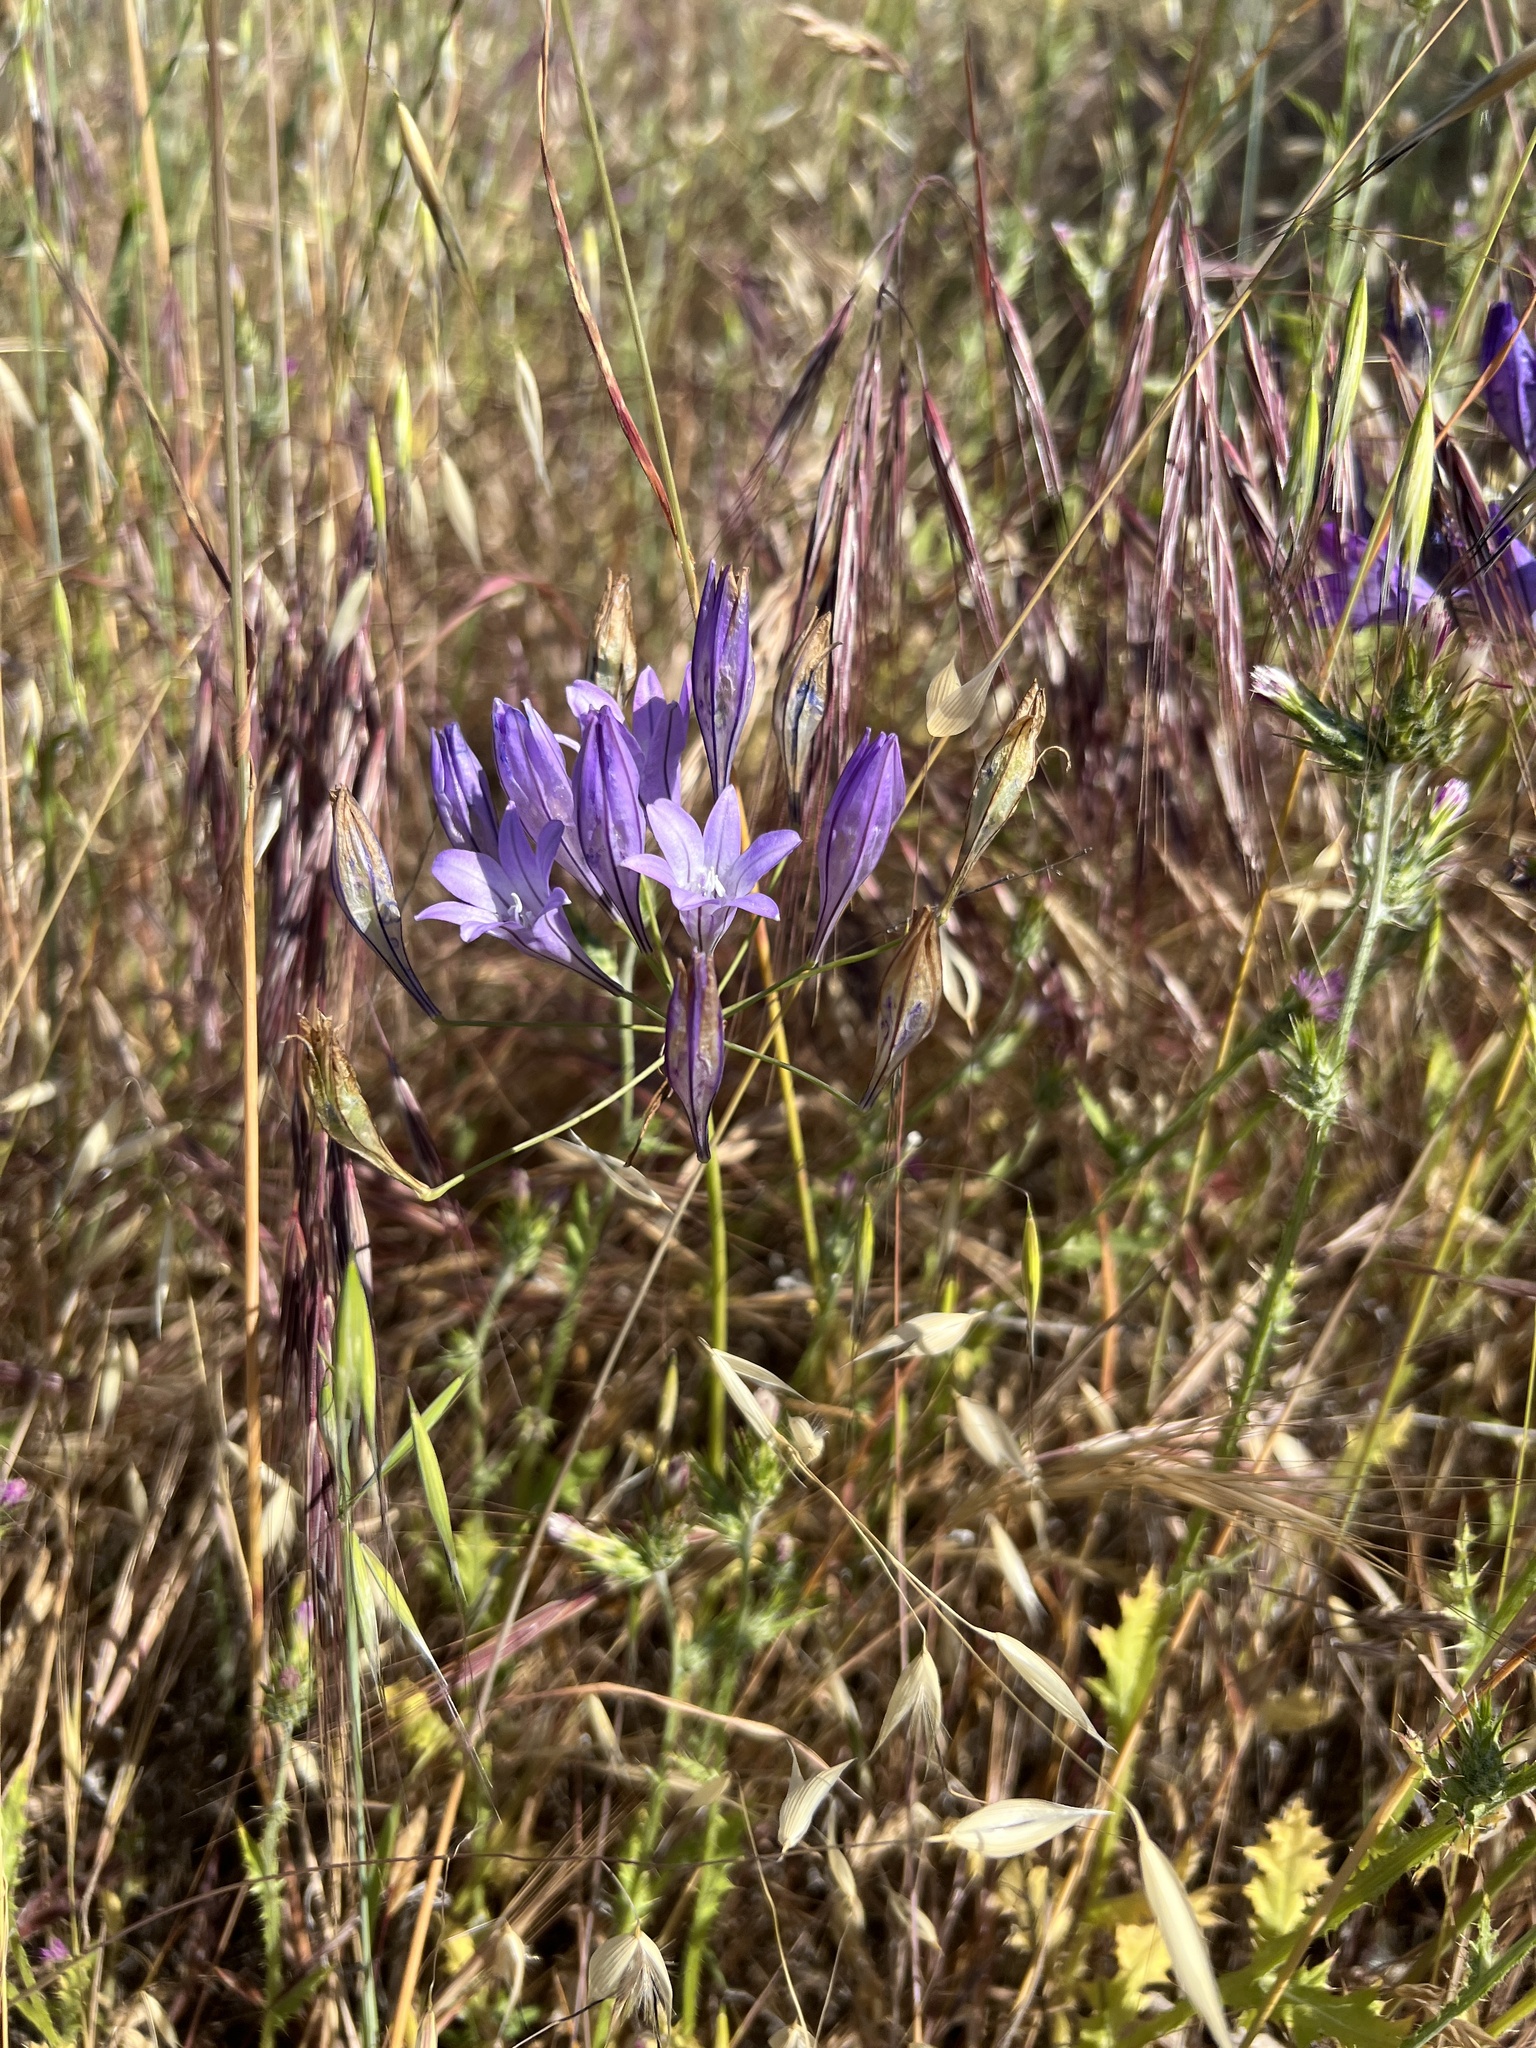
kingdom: Plantae
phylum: Tracheophyta
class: Liliopsida
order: Asparagales
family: Asparagaceae
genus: Triteleia
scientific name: Triteleia laxa
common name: Triplet-lily
